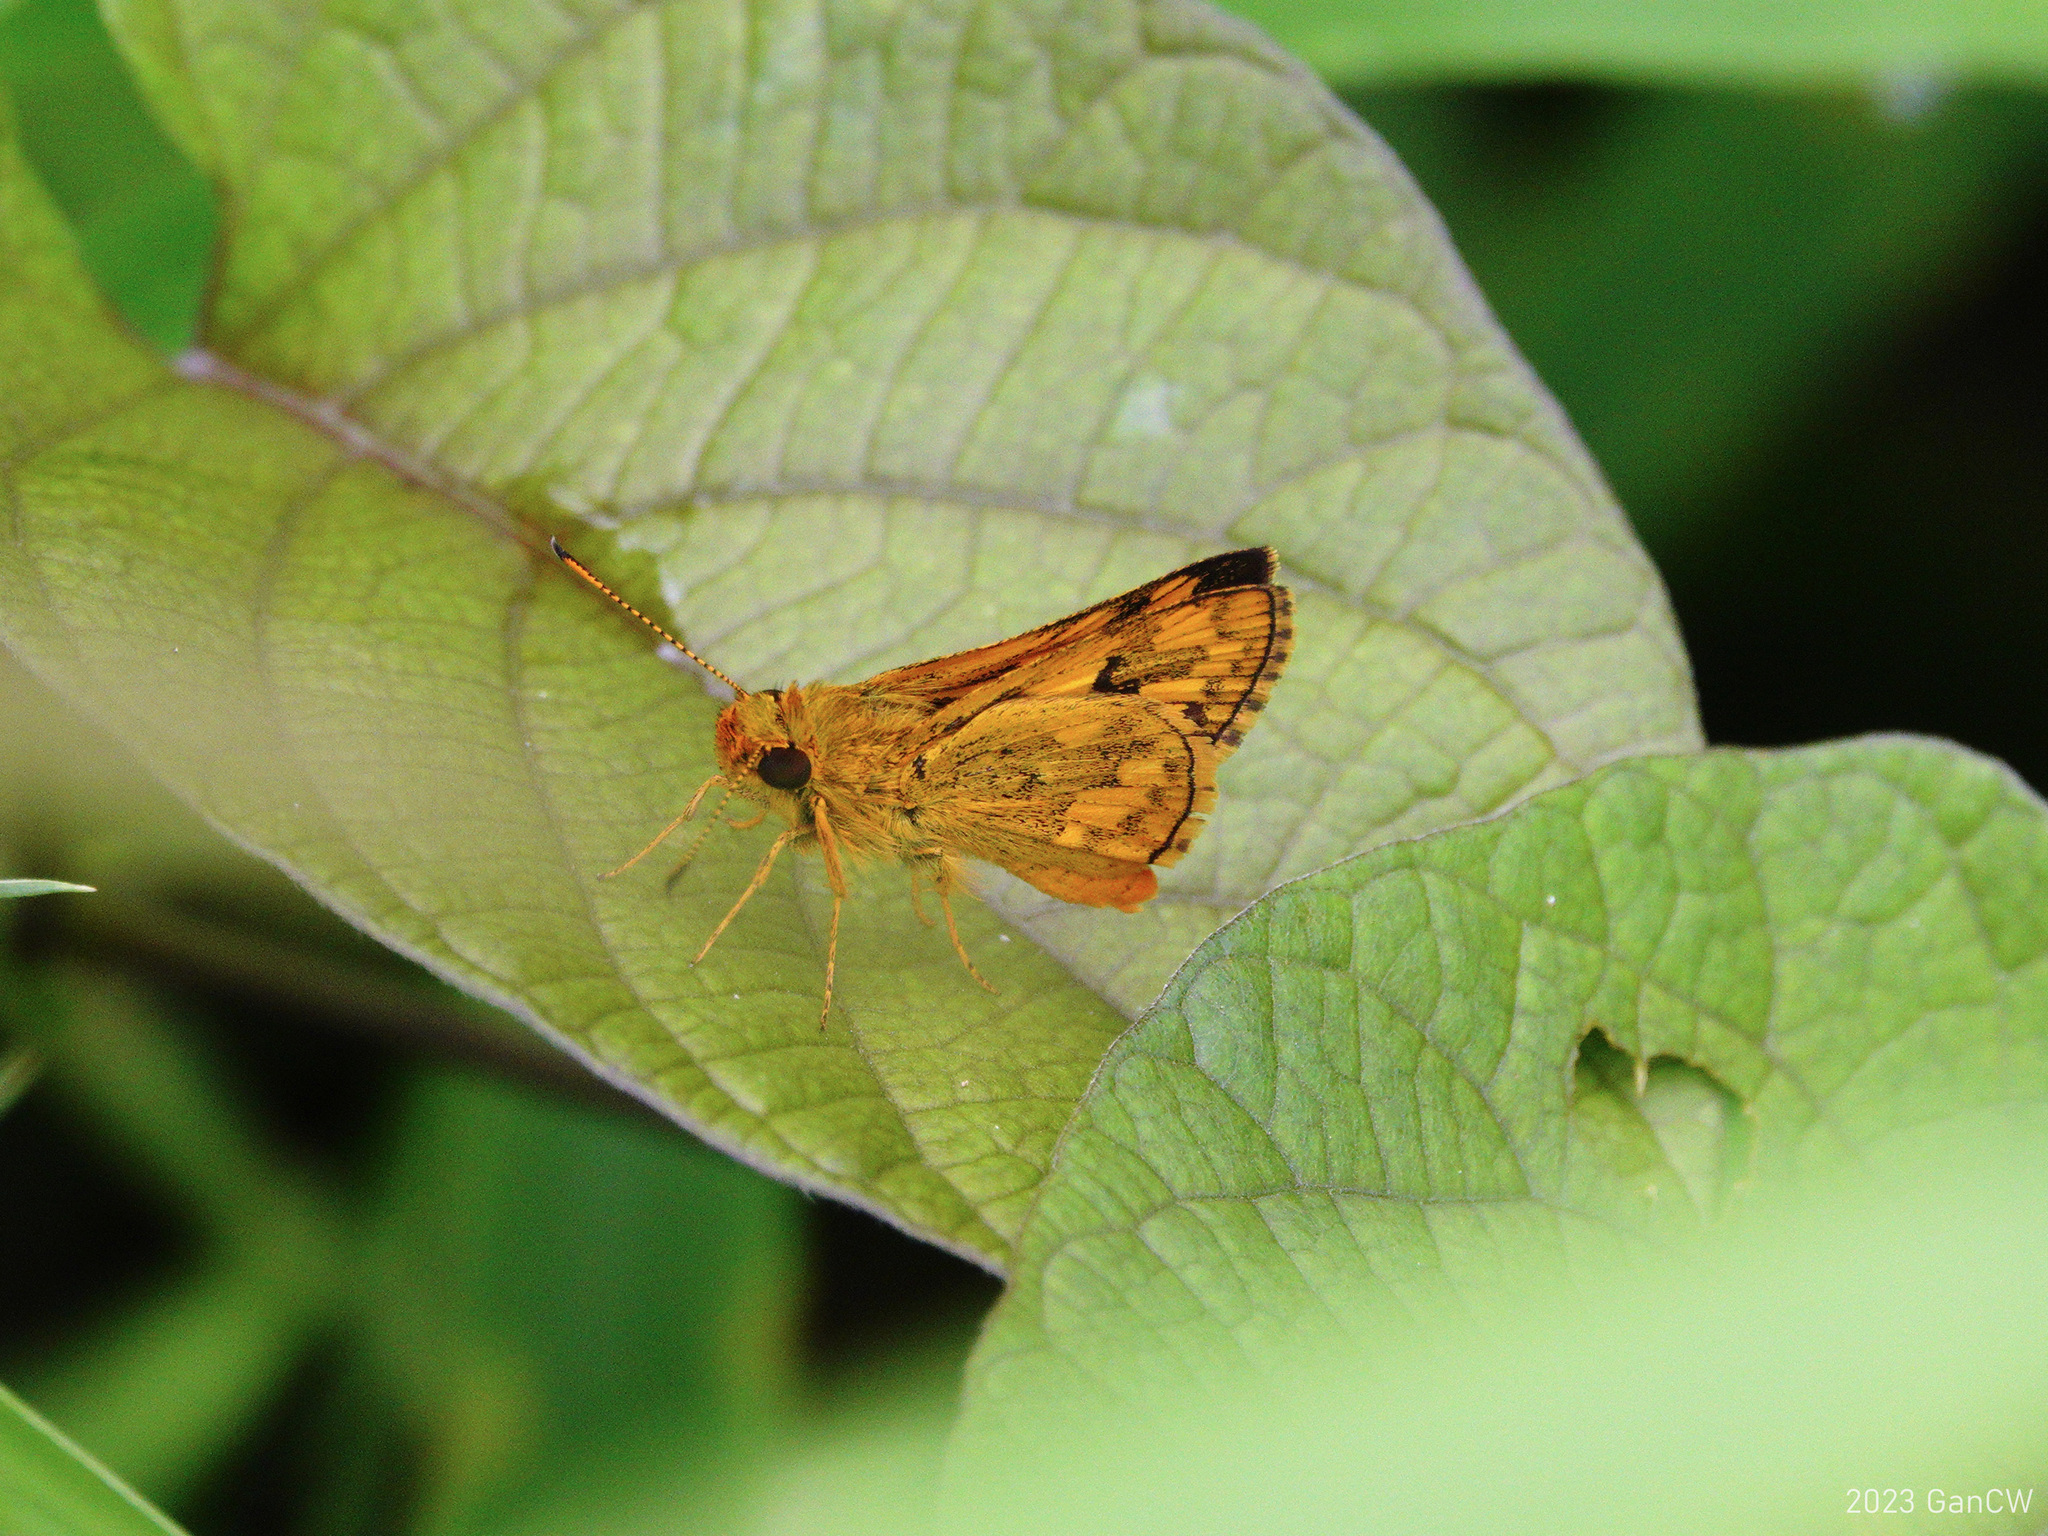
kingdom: Animalia
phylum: Arthropoda
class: Insecta
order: Lepidoptera
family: Hesperiidae
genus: Potanthus
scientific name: Potanthus omaha
